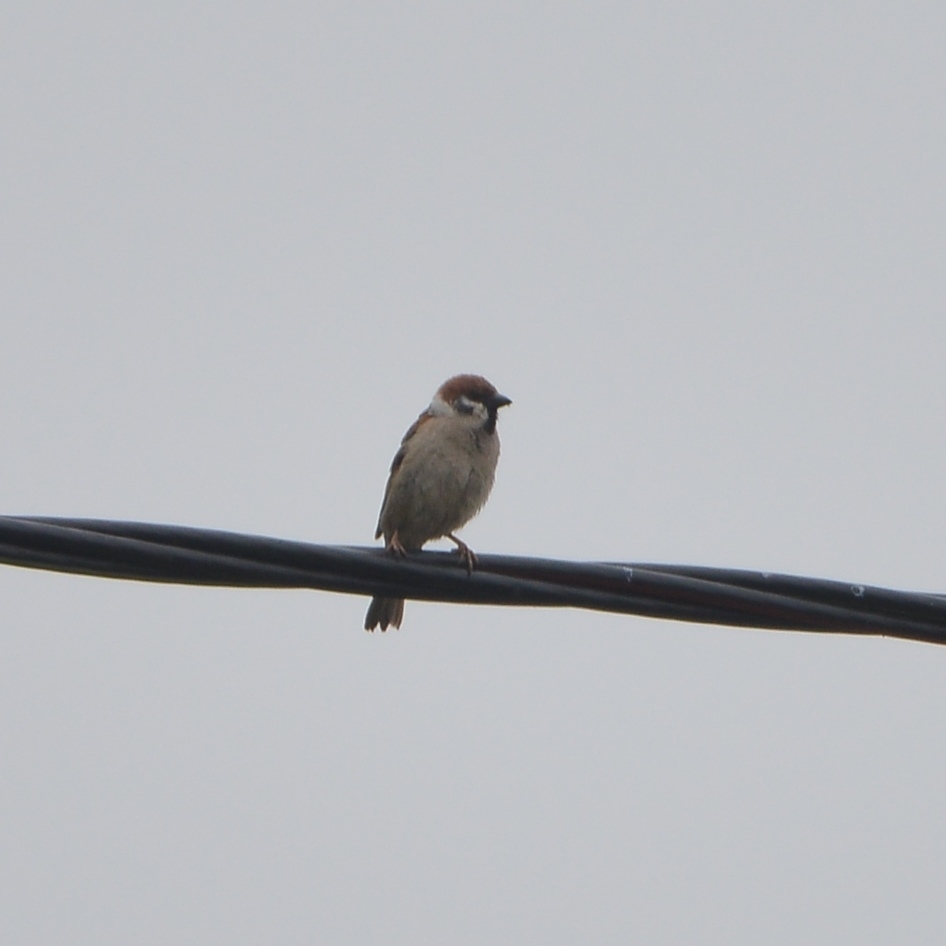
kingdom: Animalia
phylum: Chordata
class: Aves
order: Passeriformes
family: Passeridae
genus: Passer
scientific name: Passer montanus
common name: Eurasian tree sparrow
